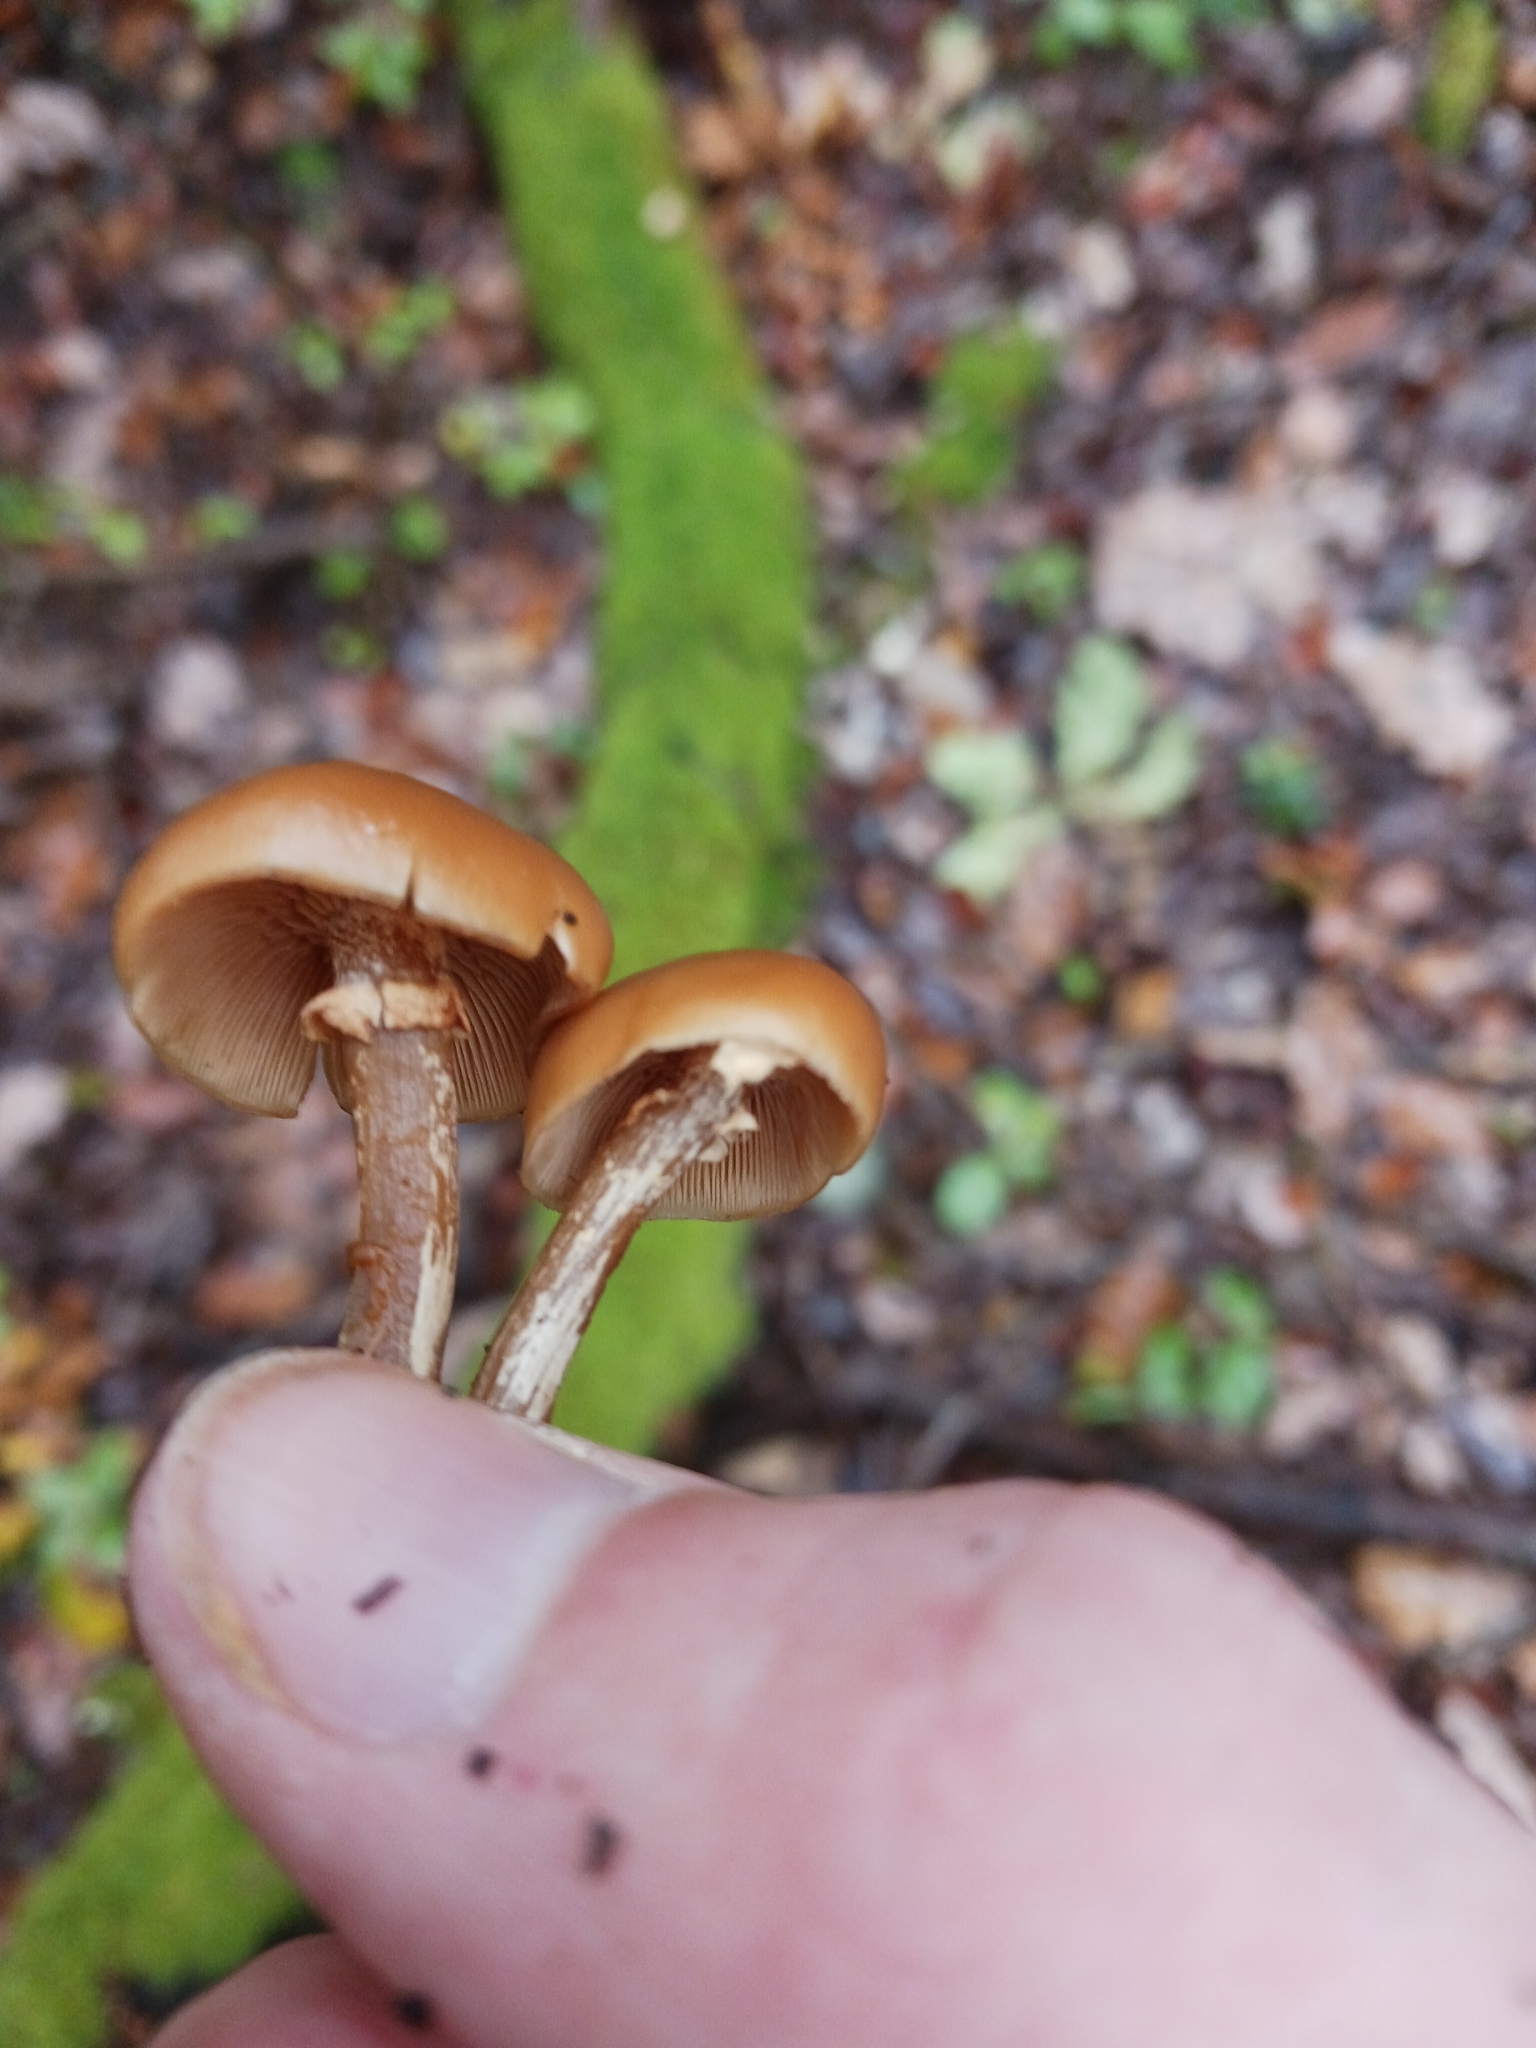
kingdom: Fungi
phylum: Basidiomycota
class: Agaricomycetes
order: Agaricales
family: Hymenogastraceae
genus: Galerina
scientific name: Galerina marginata
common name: Funeral bell
